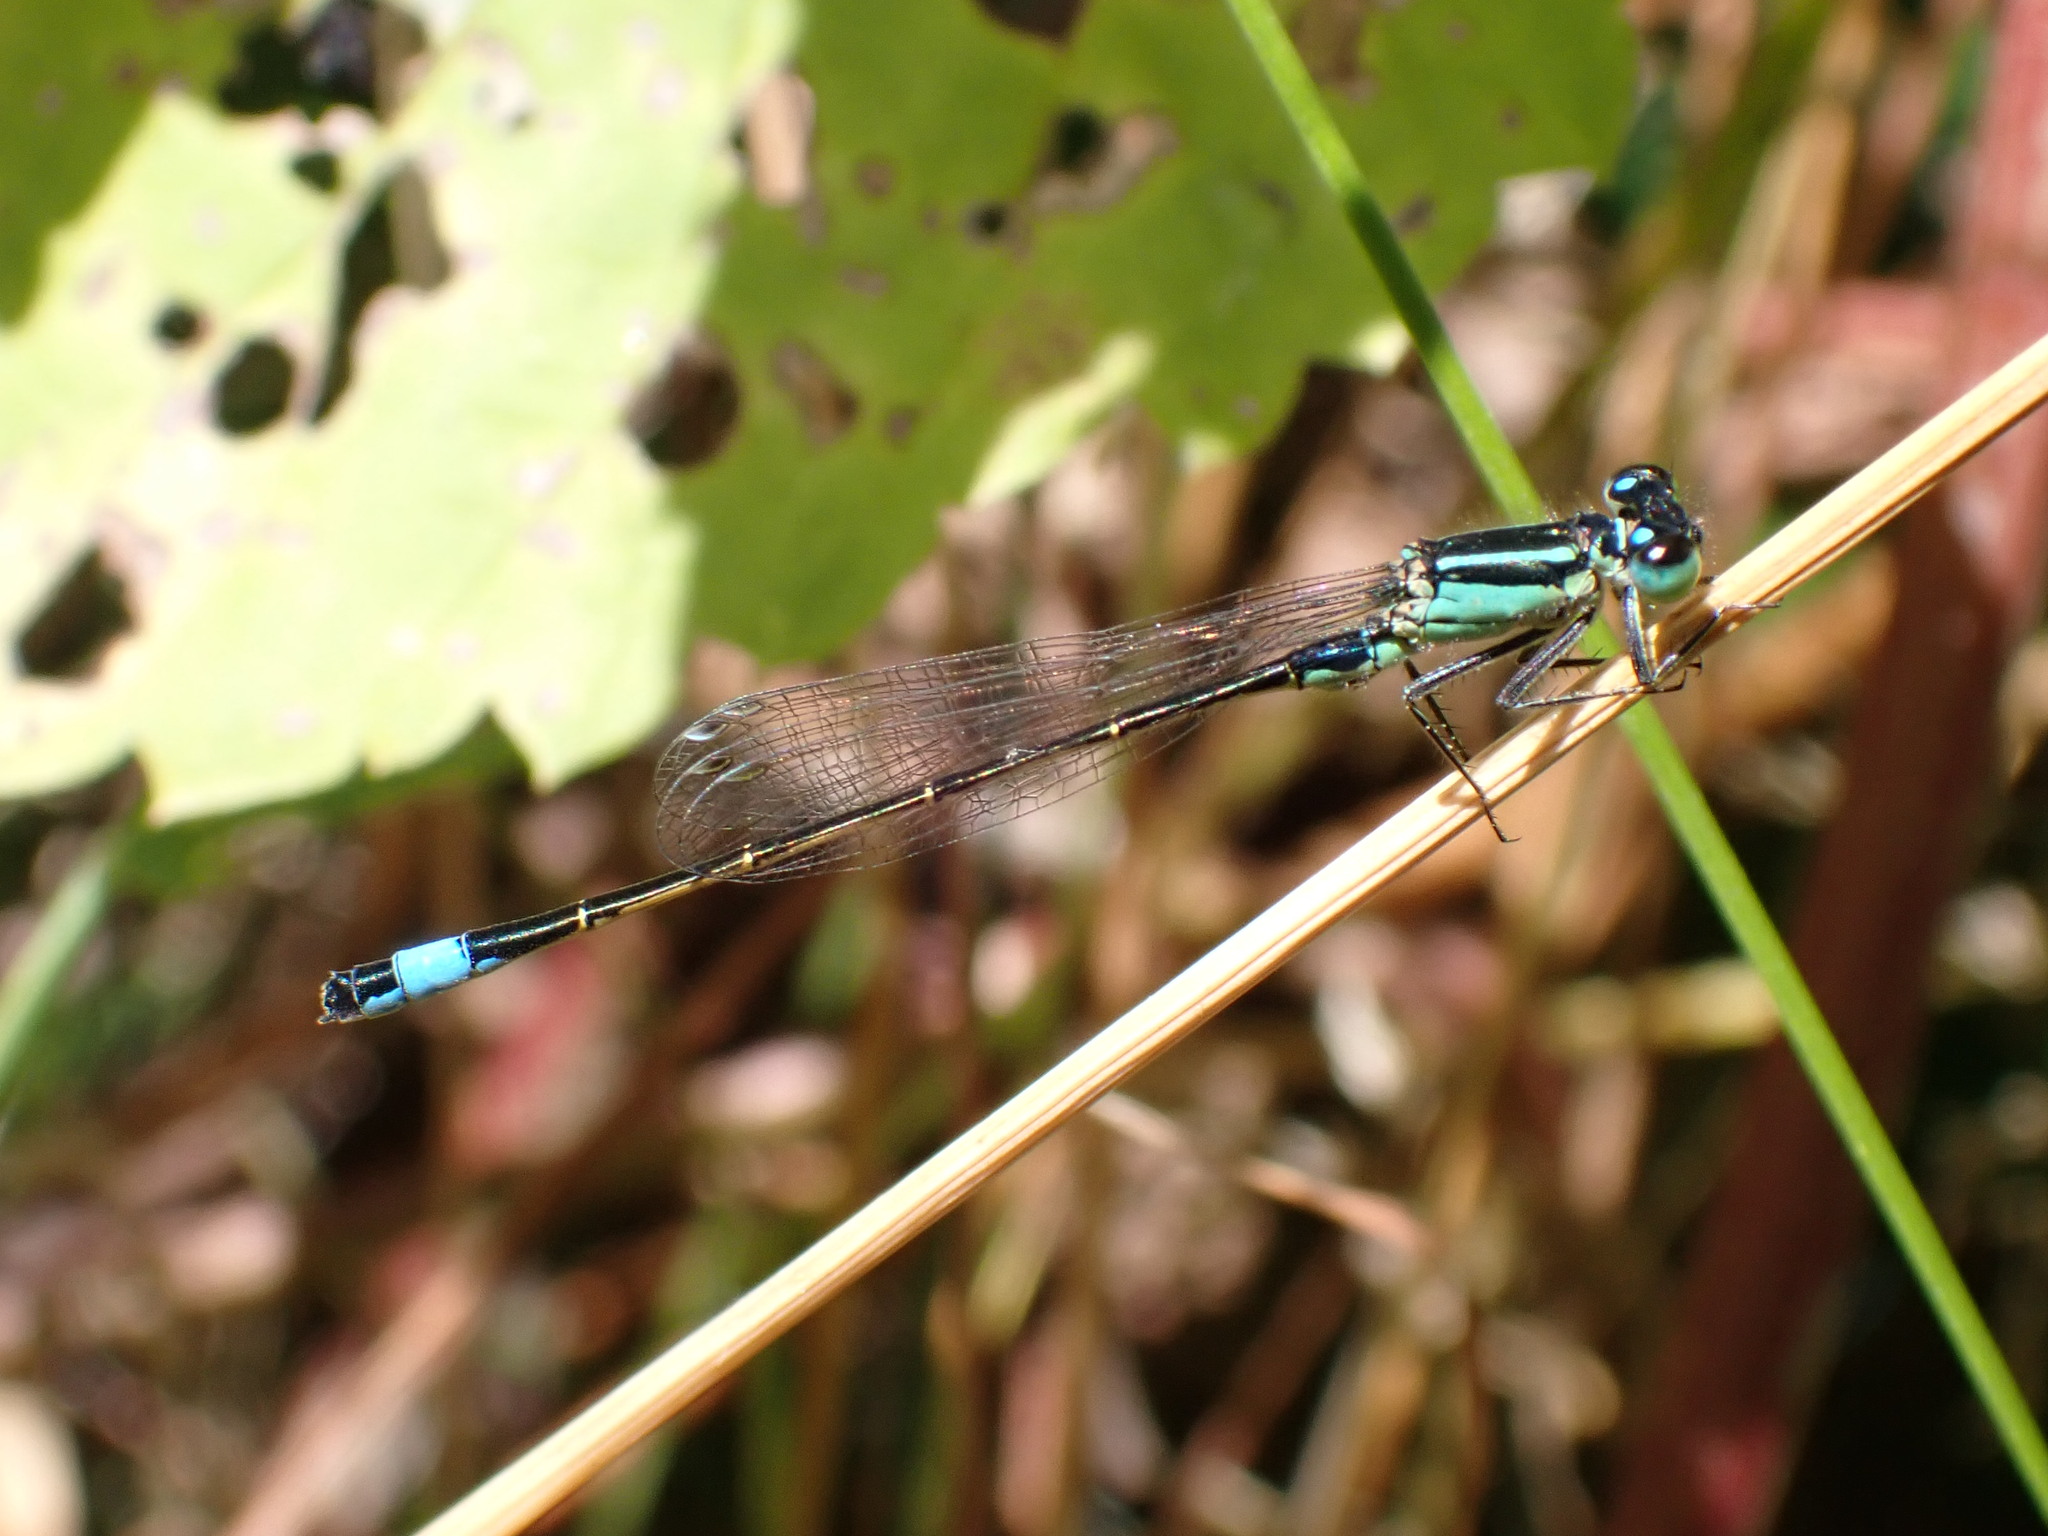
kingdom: Animalia
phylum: Arthropoda
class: Insecta
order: Odonata
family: Coenagrionidae
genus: Ischnura
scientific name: Ischnura elegans
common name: Blue-tailed damselfly
